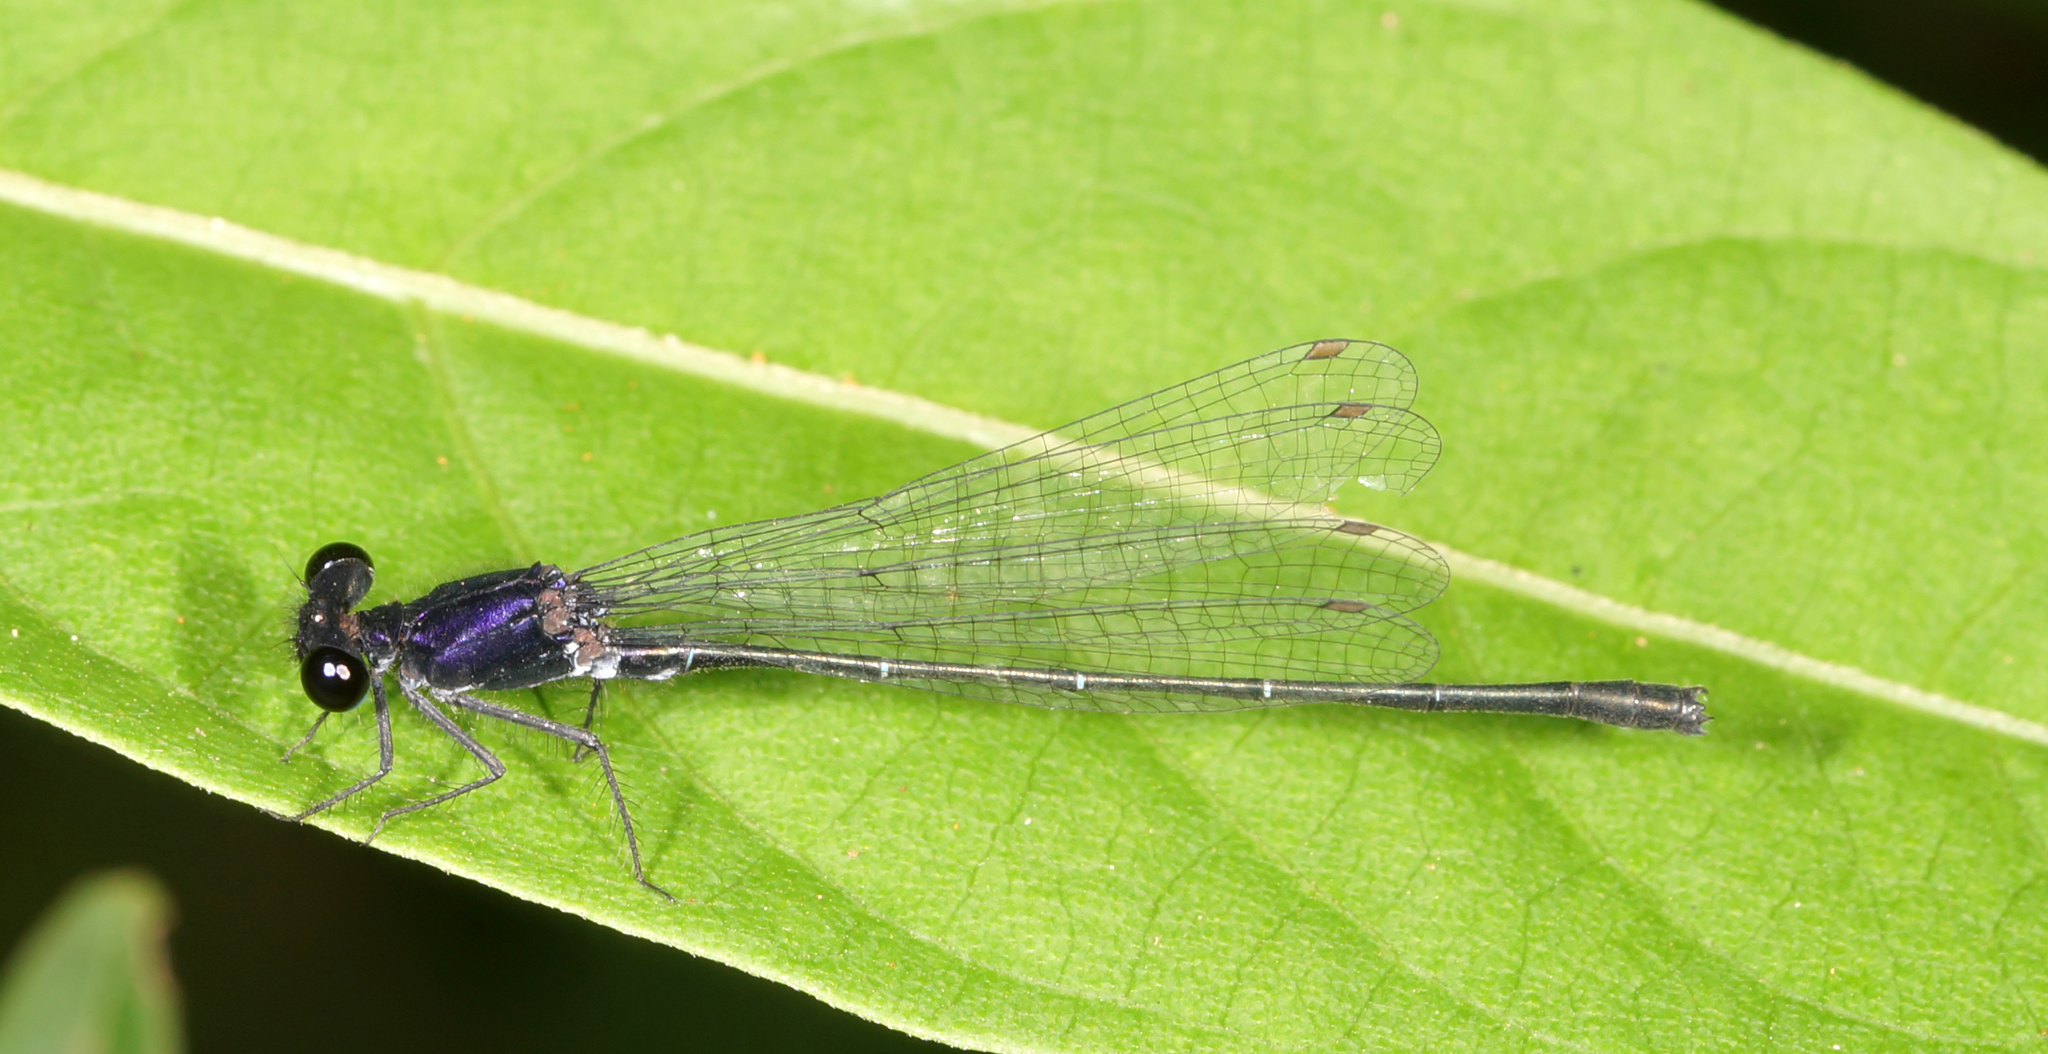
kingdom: Animalia
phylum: Arthropoda
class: Insecta
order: Odonata
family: Platycnemididae
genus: Onychargia
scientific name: Onychargia atrocyana
